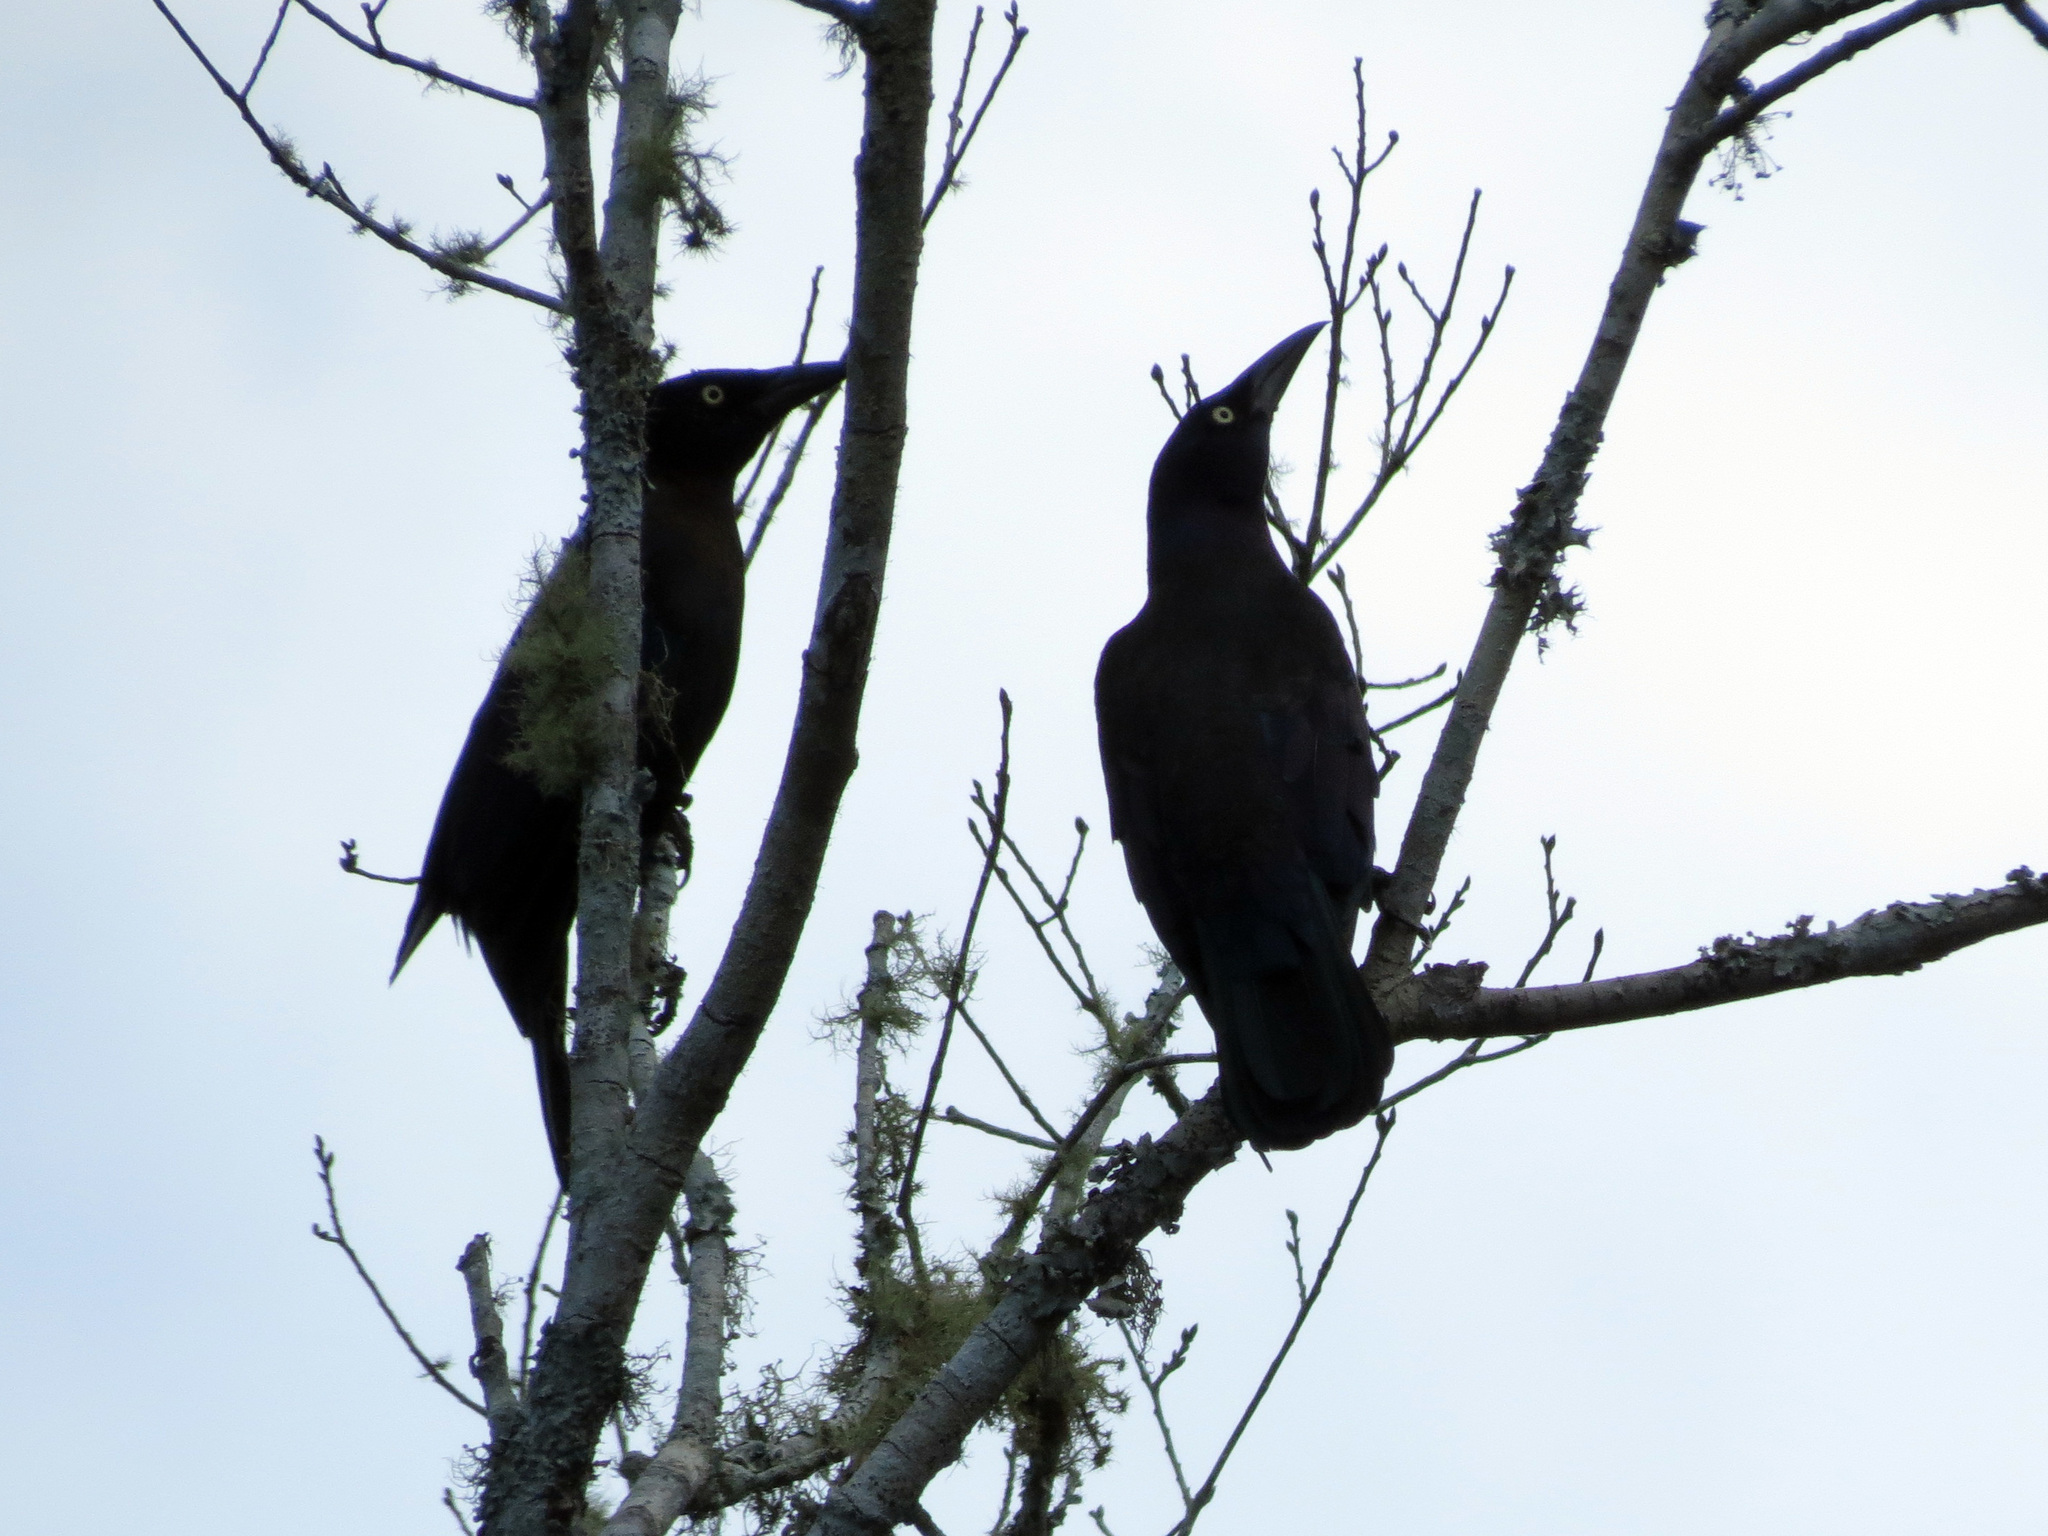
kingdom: Animalia
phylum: Chordata
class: Aves
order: Passeriformes
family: Icteridae
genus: Quiscalus
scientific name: Quiscalus quiscula
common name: Common grackle
